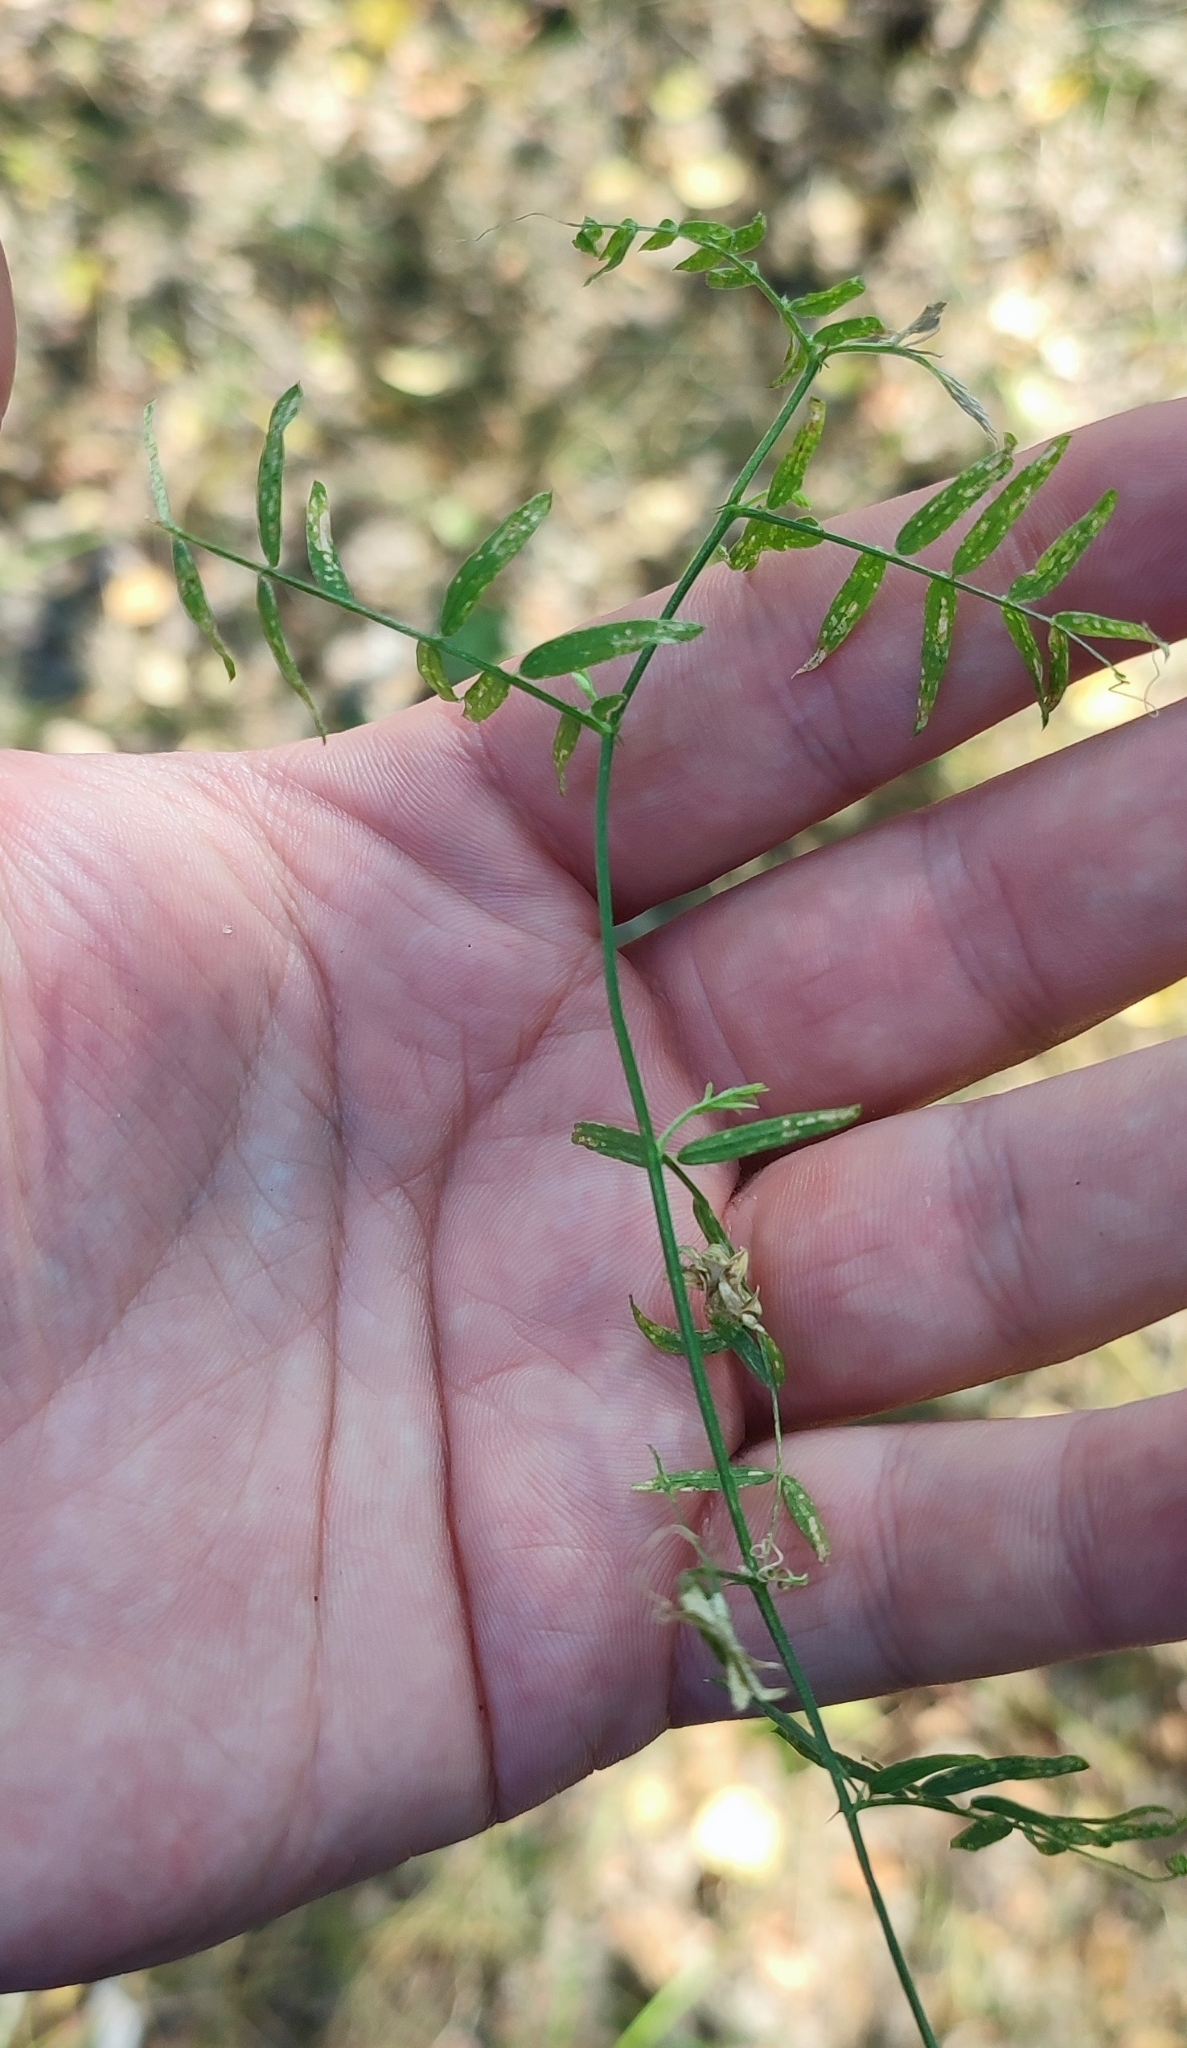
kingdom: Plantae
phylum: Tracheophyta
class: Magnoliopsida
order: Fabales
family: Fabaceae
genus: Vicia
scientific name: Vicia cracca
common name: Bird vetch
